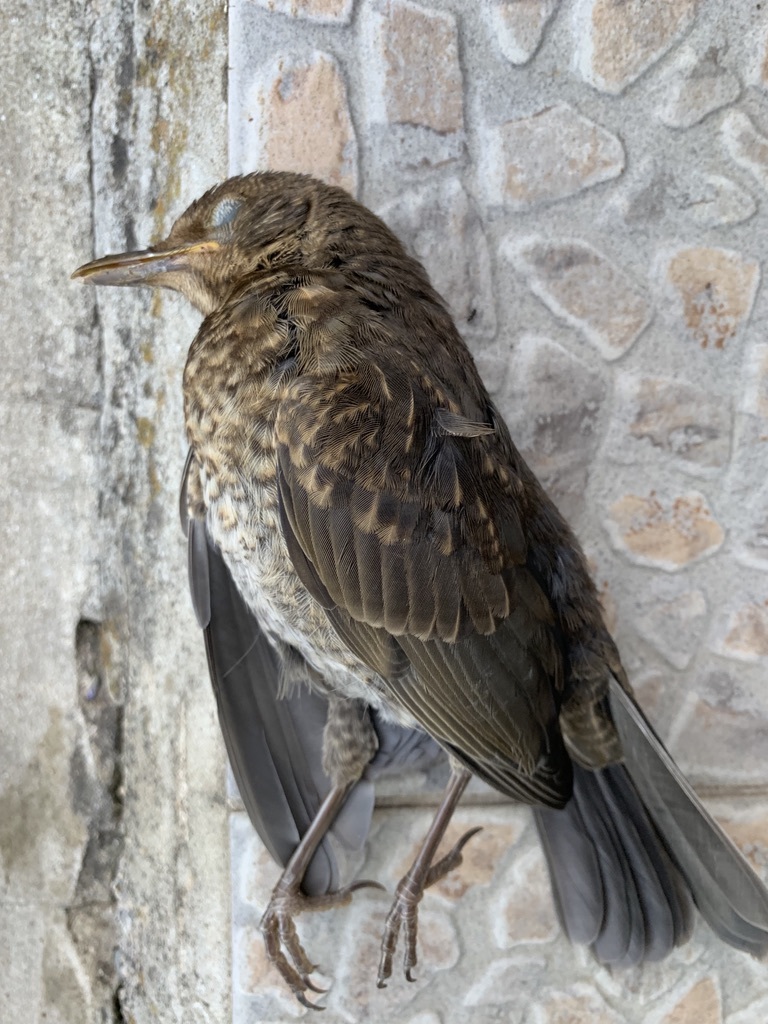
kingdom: Animalia
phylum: Chordata
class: Aves
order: Passeriformes
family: Turdidae
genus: Turdus
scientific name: Turdus merula
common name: Common blackbird
